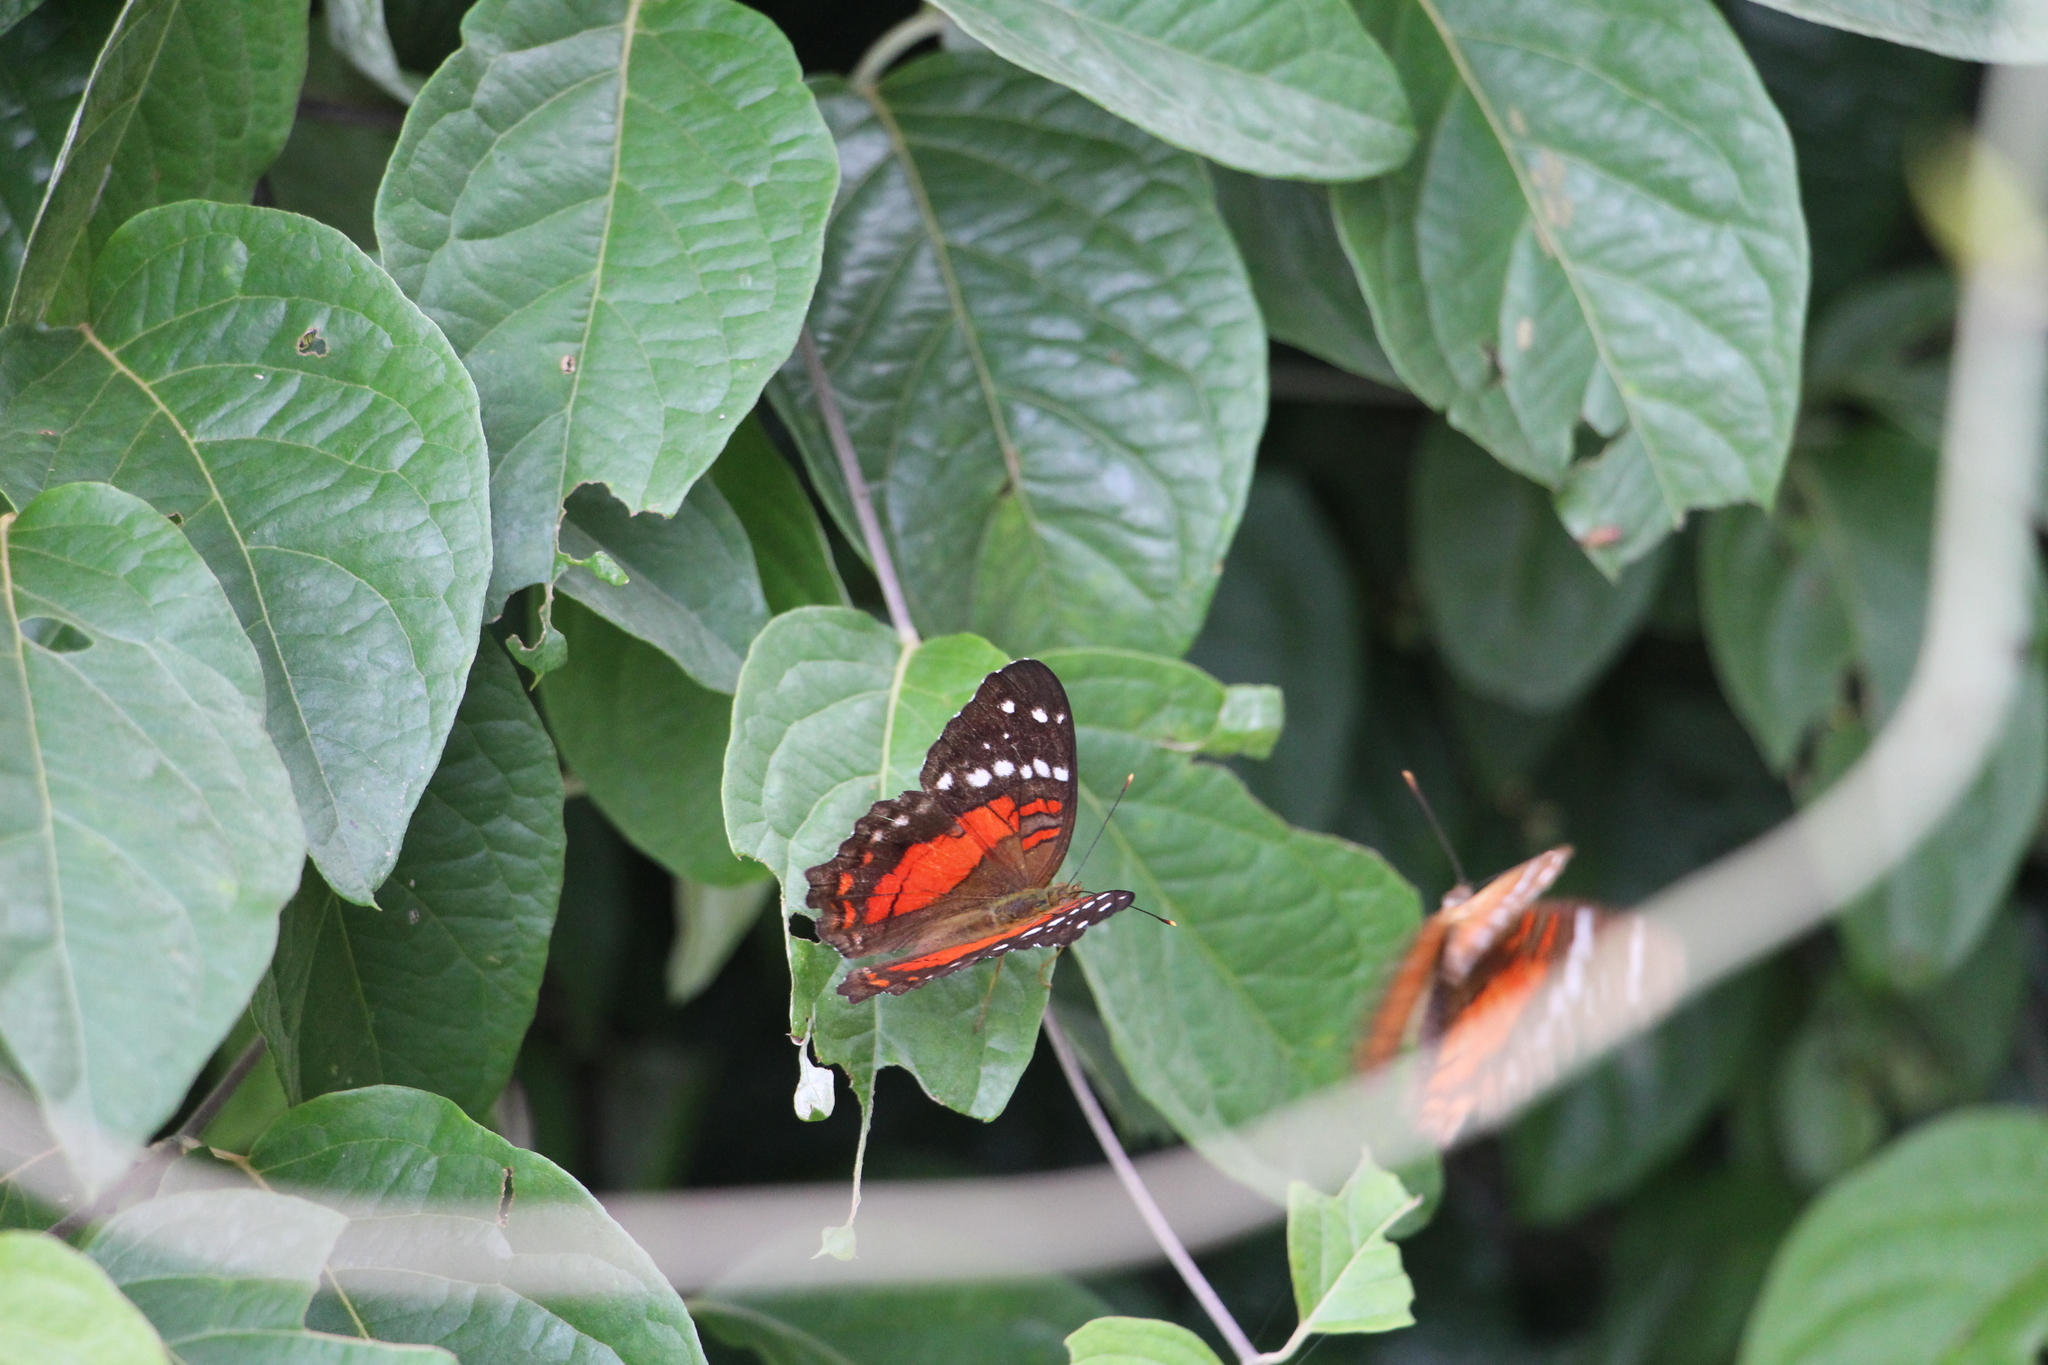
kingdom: Animalia
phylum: Arthropoda
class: Insecta
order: Lepidoptera
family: Nymphalidae
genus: Anartia
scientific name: Anartia amathea
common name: Red peacock
